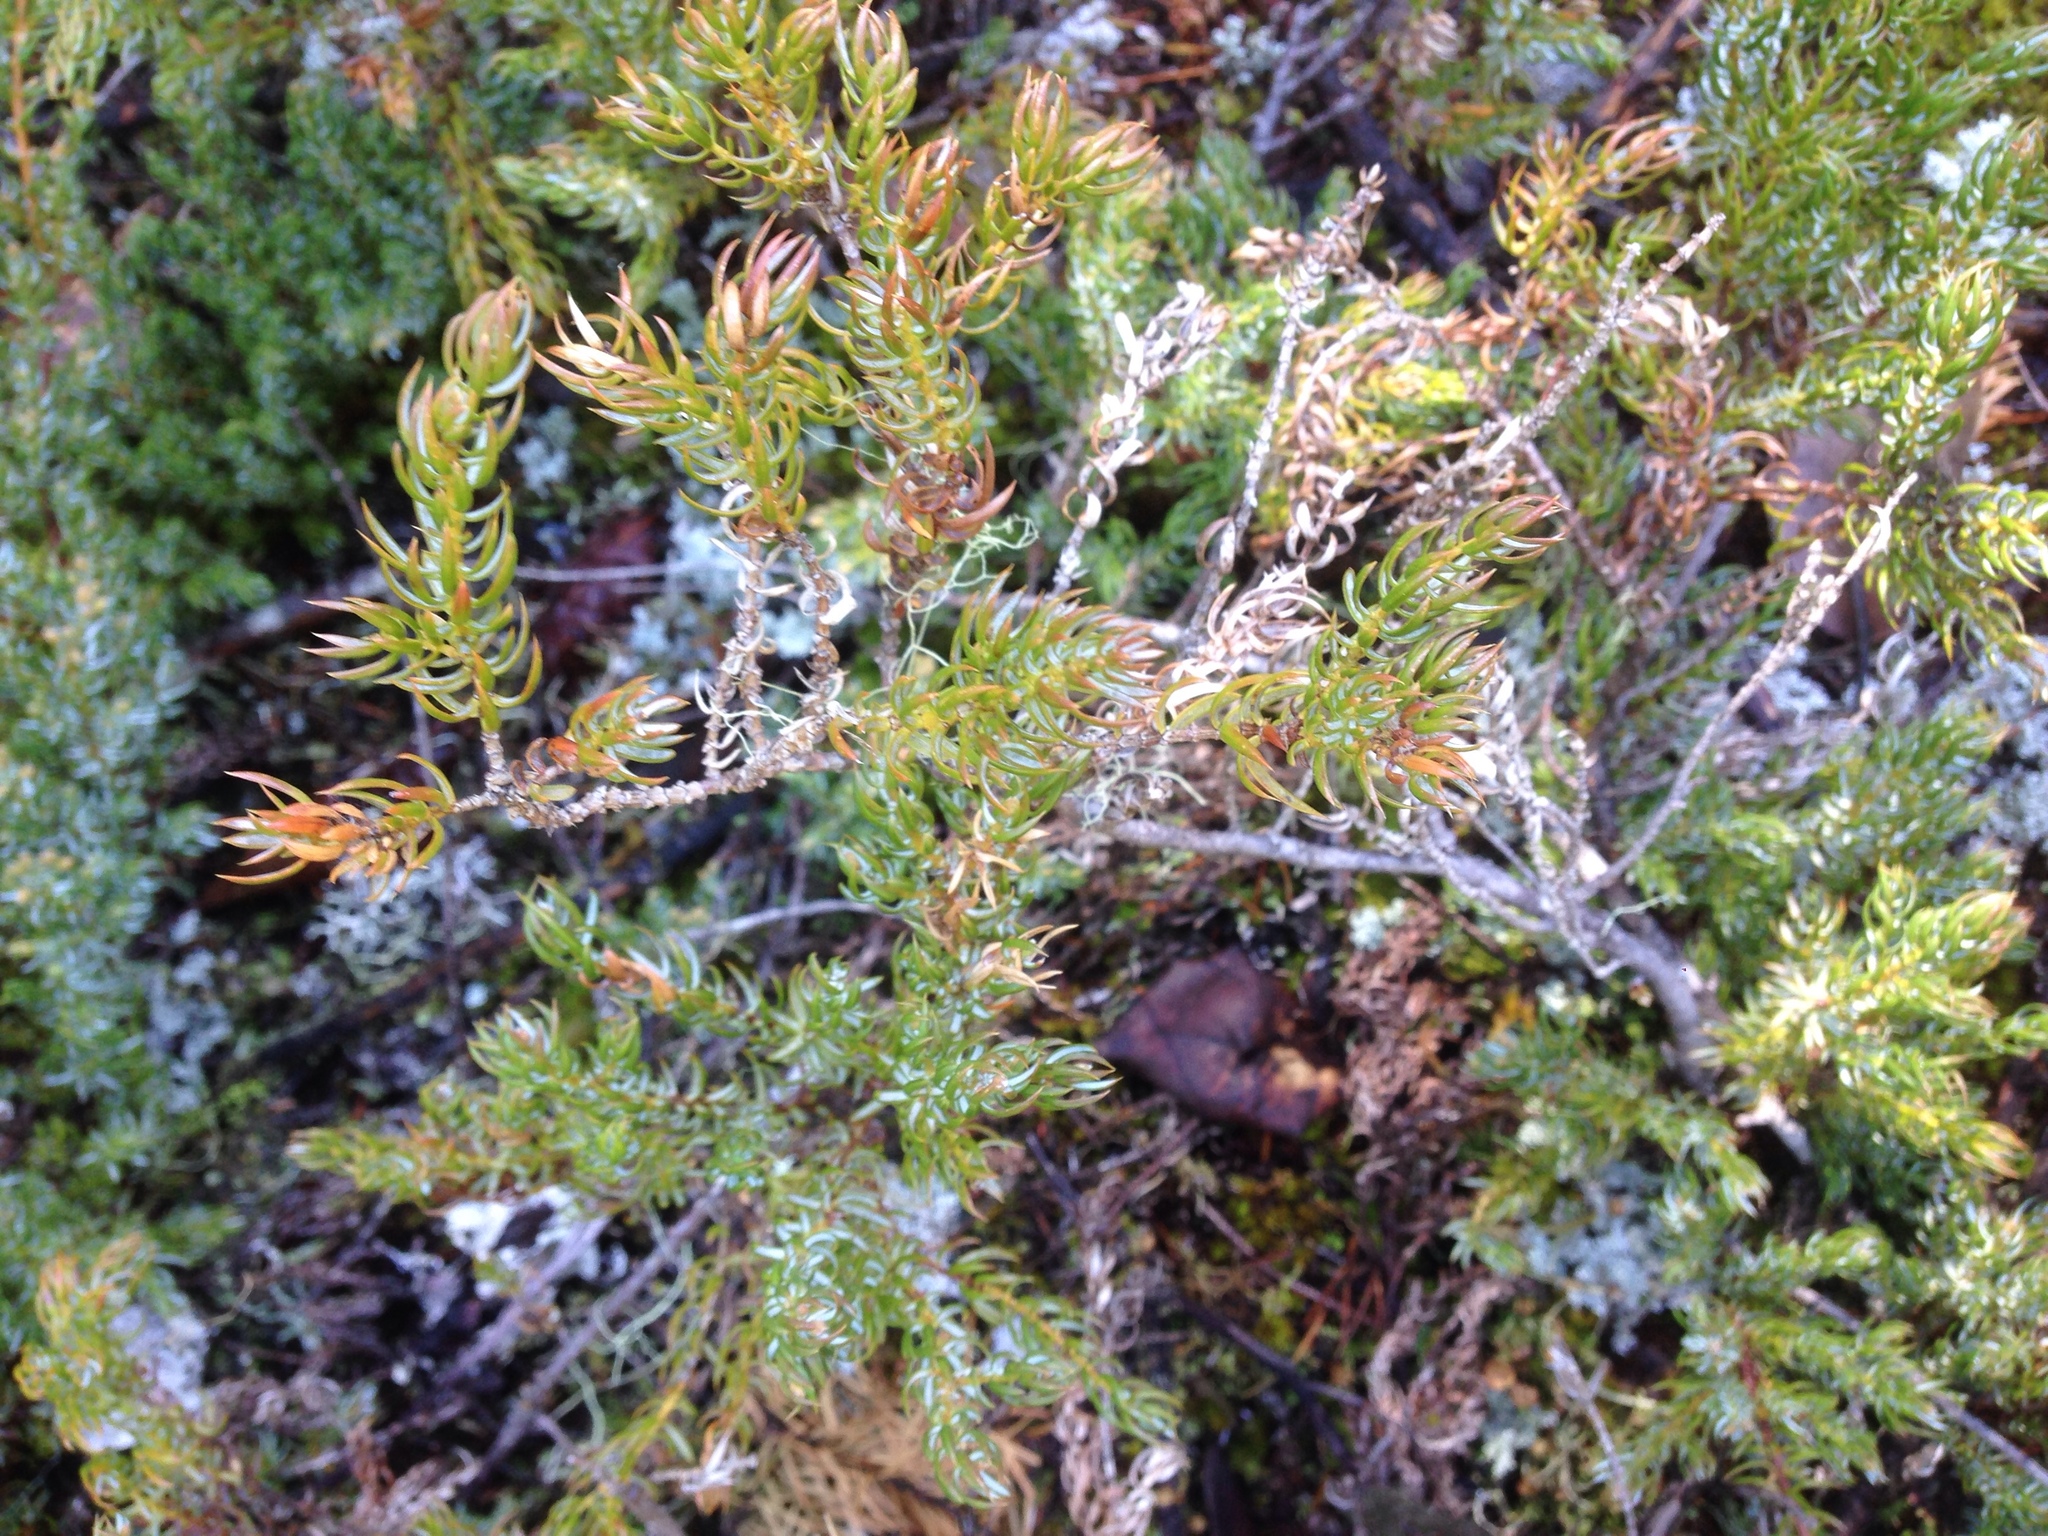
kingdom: Plantae
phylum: Tracheophyta
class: Pinopsida
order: Pinales
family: Cupressaceae
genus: Juniperus
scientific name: Juniperus communis
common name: Common juniper
